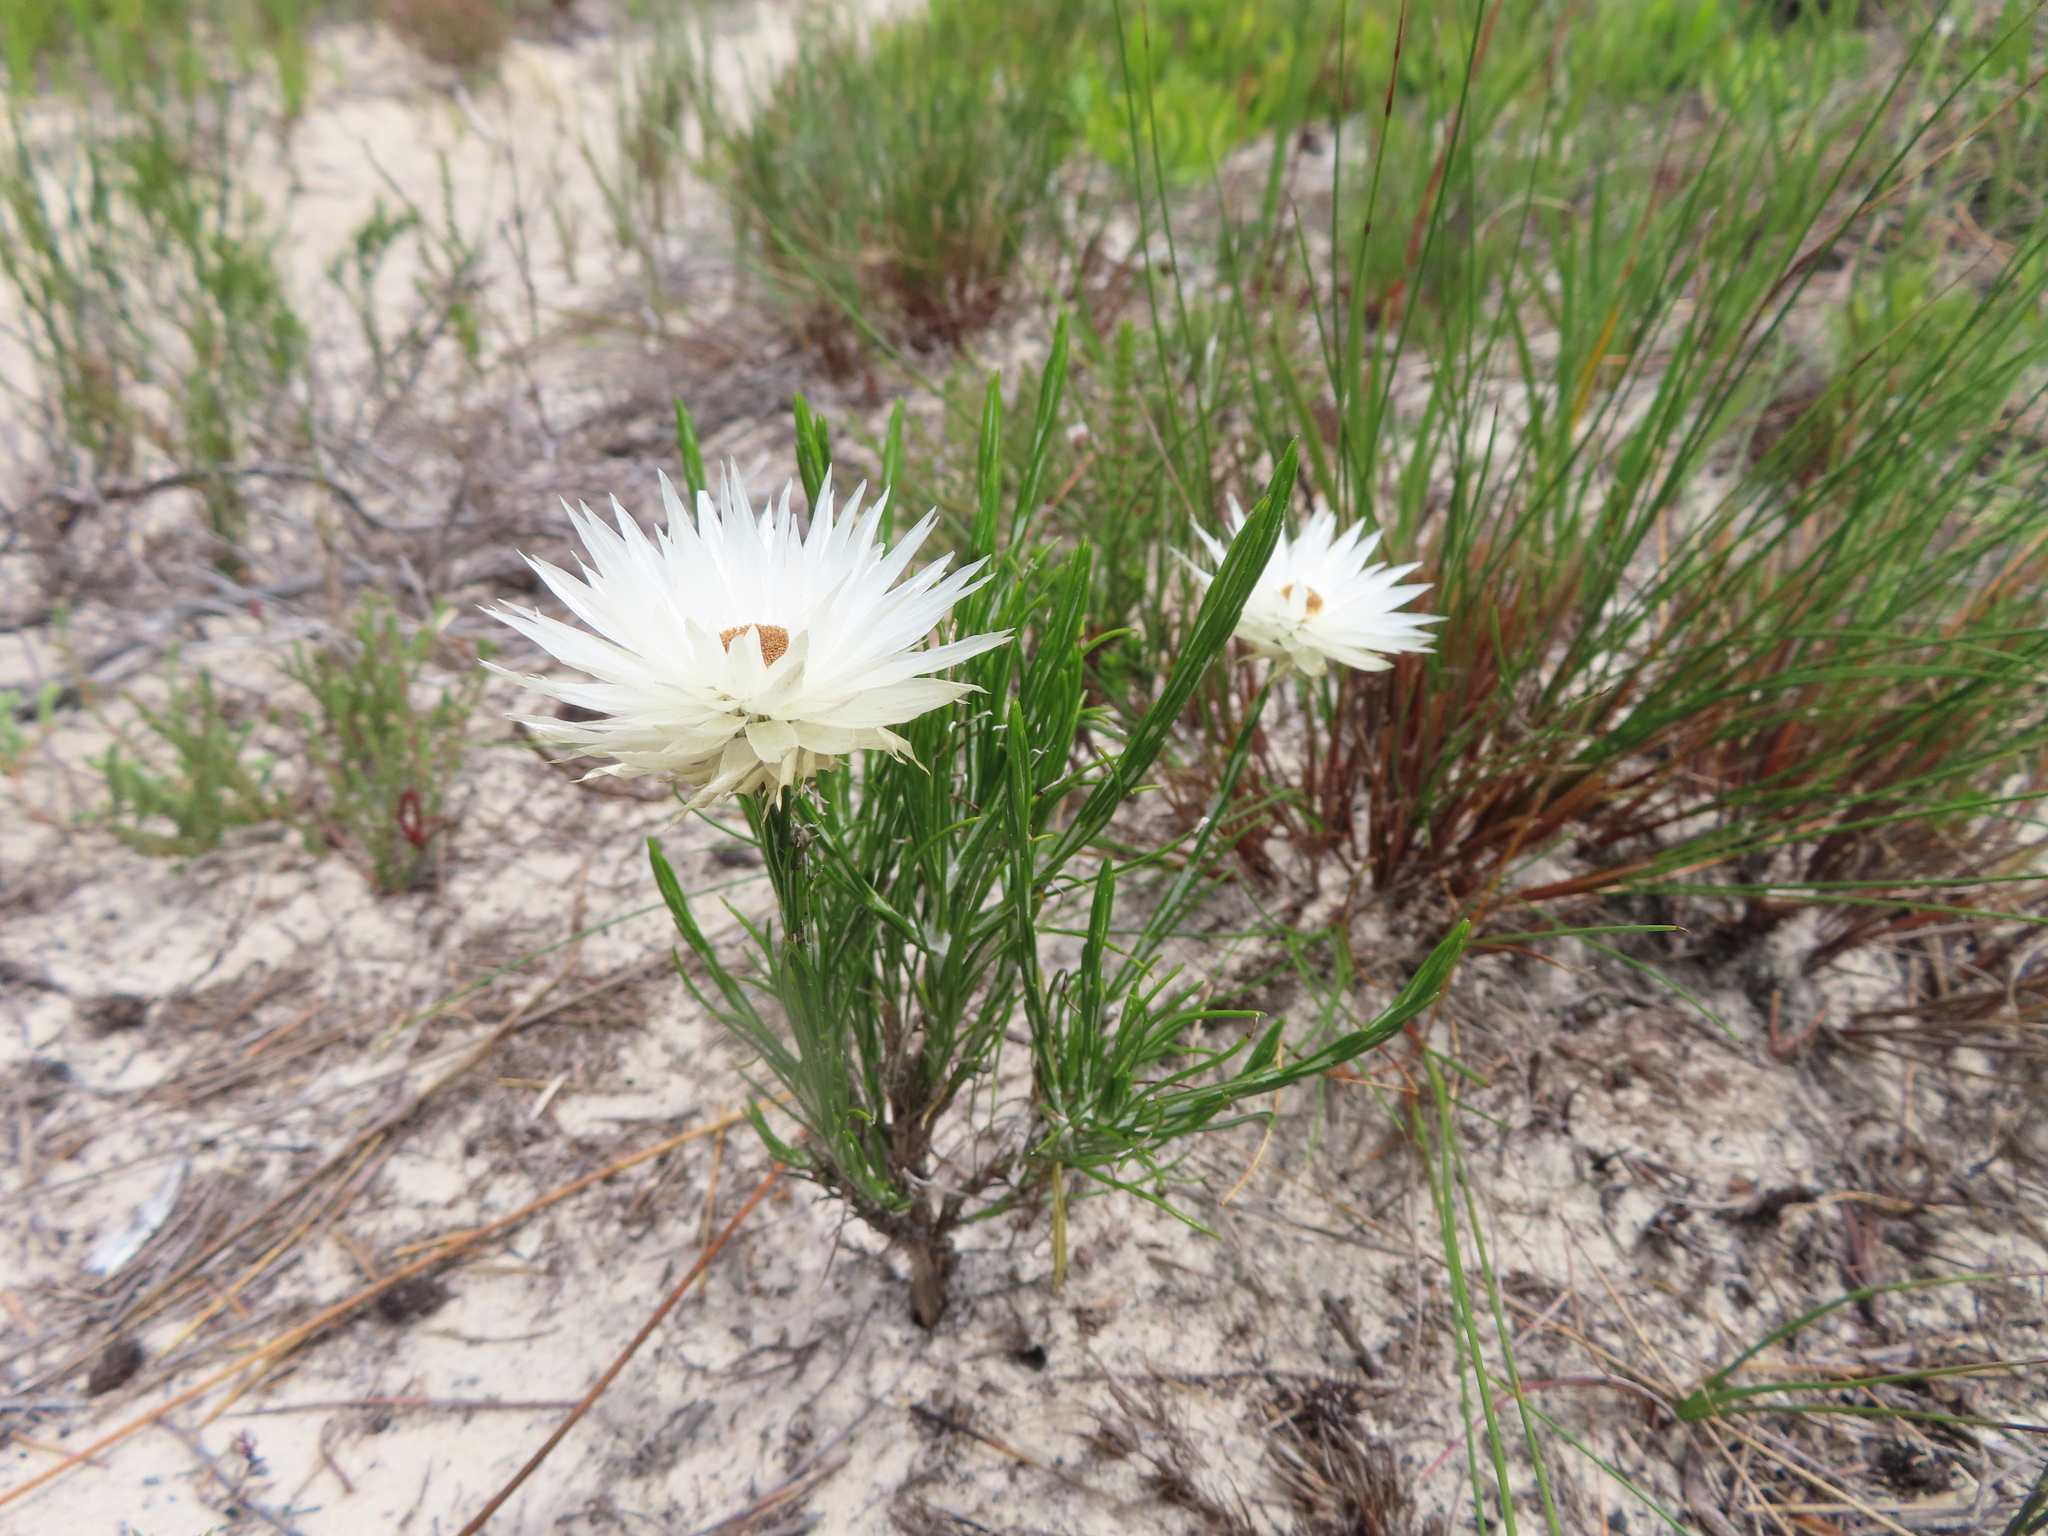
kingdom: Plantae
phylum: Tracheophyta
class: Magnoliopsida
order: Asterales
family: Asteraceae
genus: Edmondia
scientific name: Edmondia sesamoides
